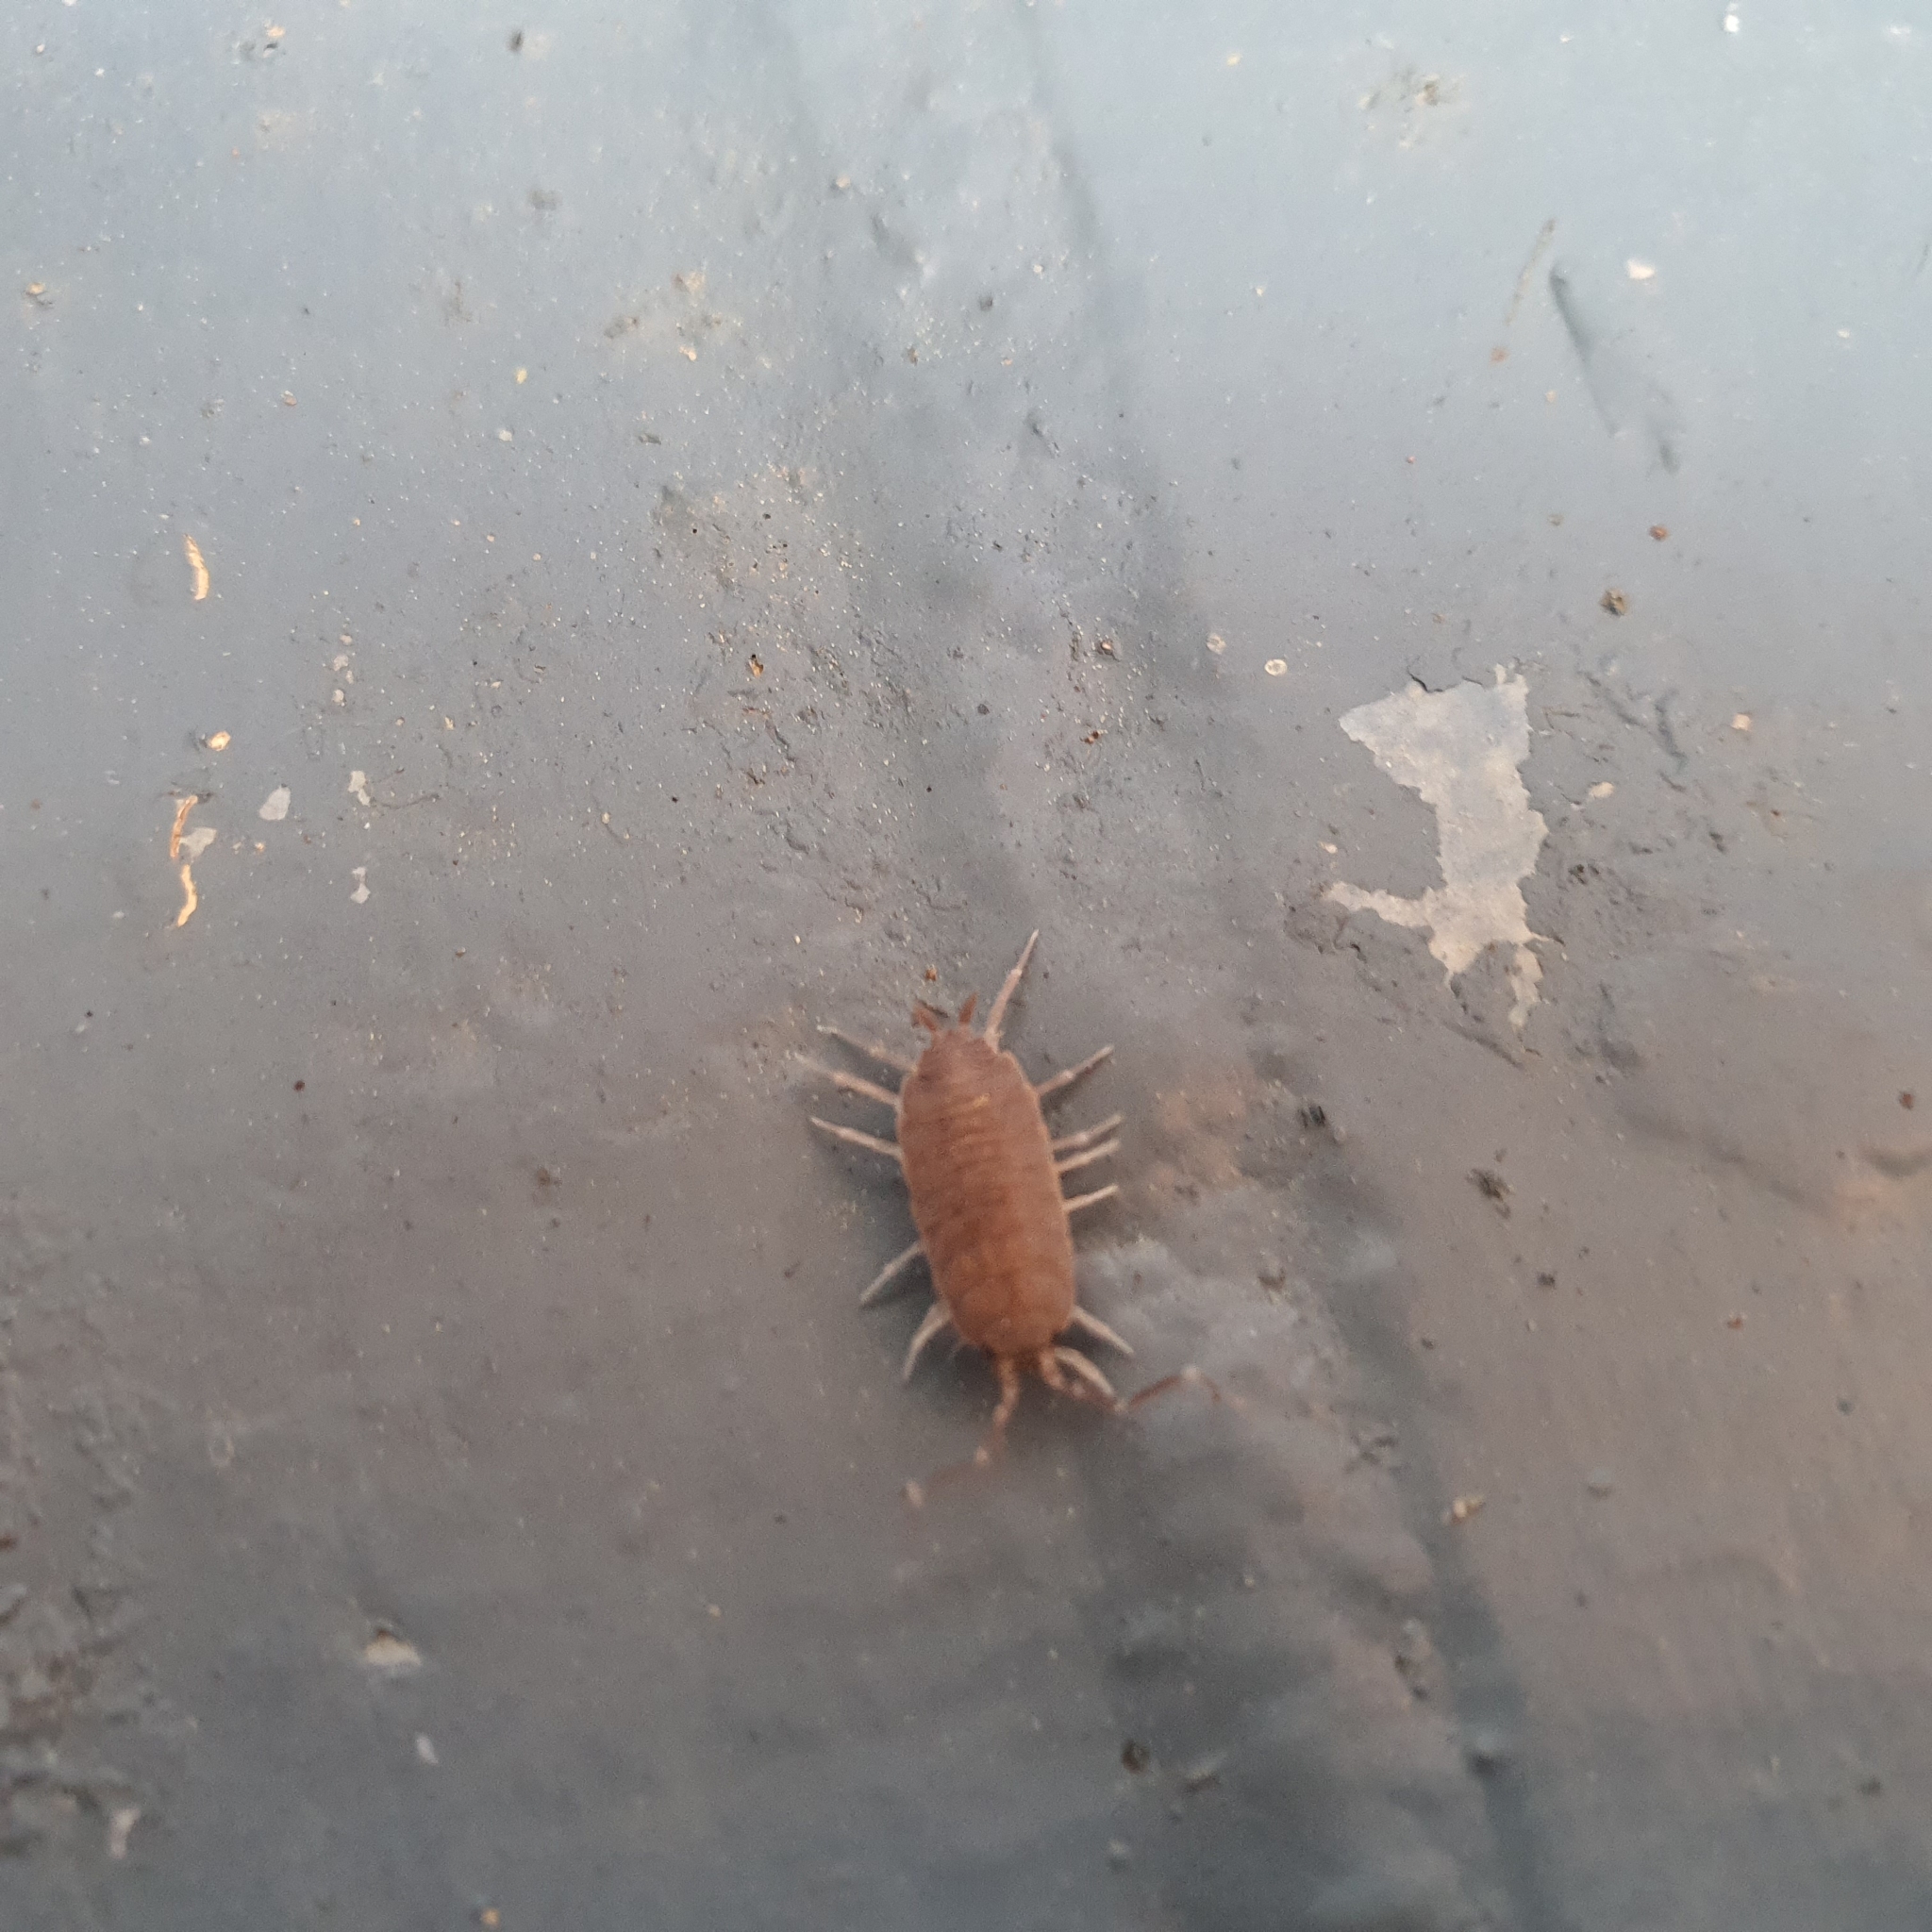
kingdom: Animalia
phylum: Arthropoda
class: Malacostraca
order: Isopoda
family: Porcellionidae
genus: Porcellionides
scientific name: Porcellionides pruinosus
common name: Plum woodlouse
